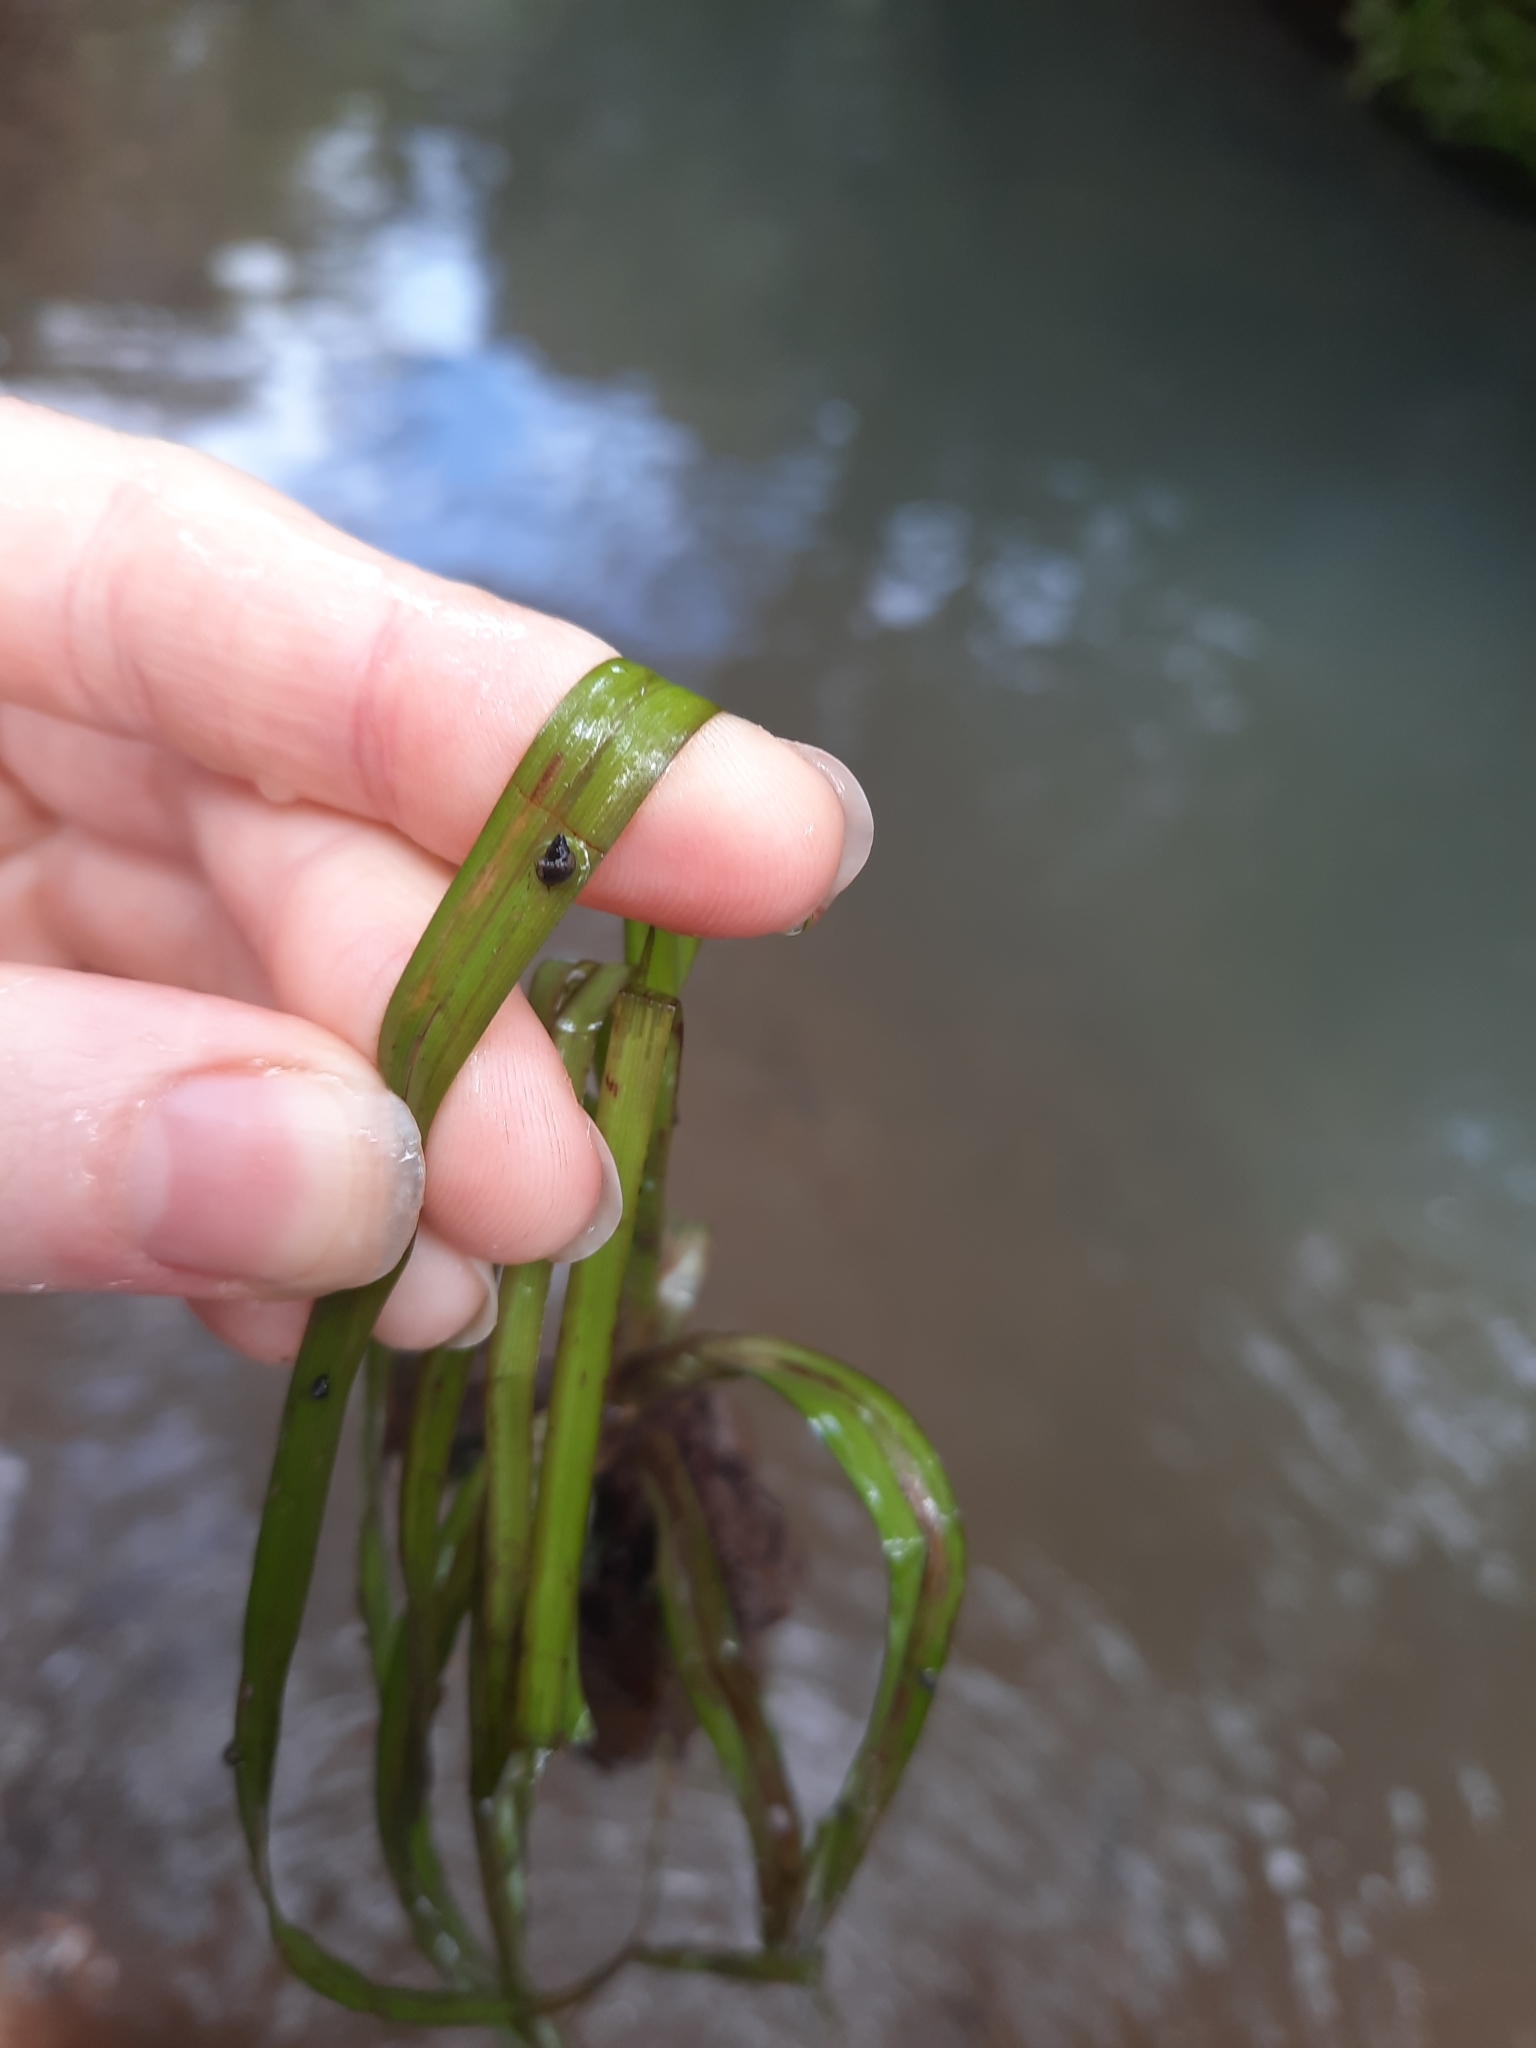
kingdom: Animalia
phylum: Mollusca
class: Gastropoda
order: Littorinimorpha
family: Tateidae
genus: Potamopyrgus
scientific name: Potamopyrgus antipodarum
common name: Jenkins' spire snail
